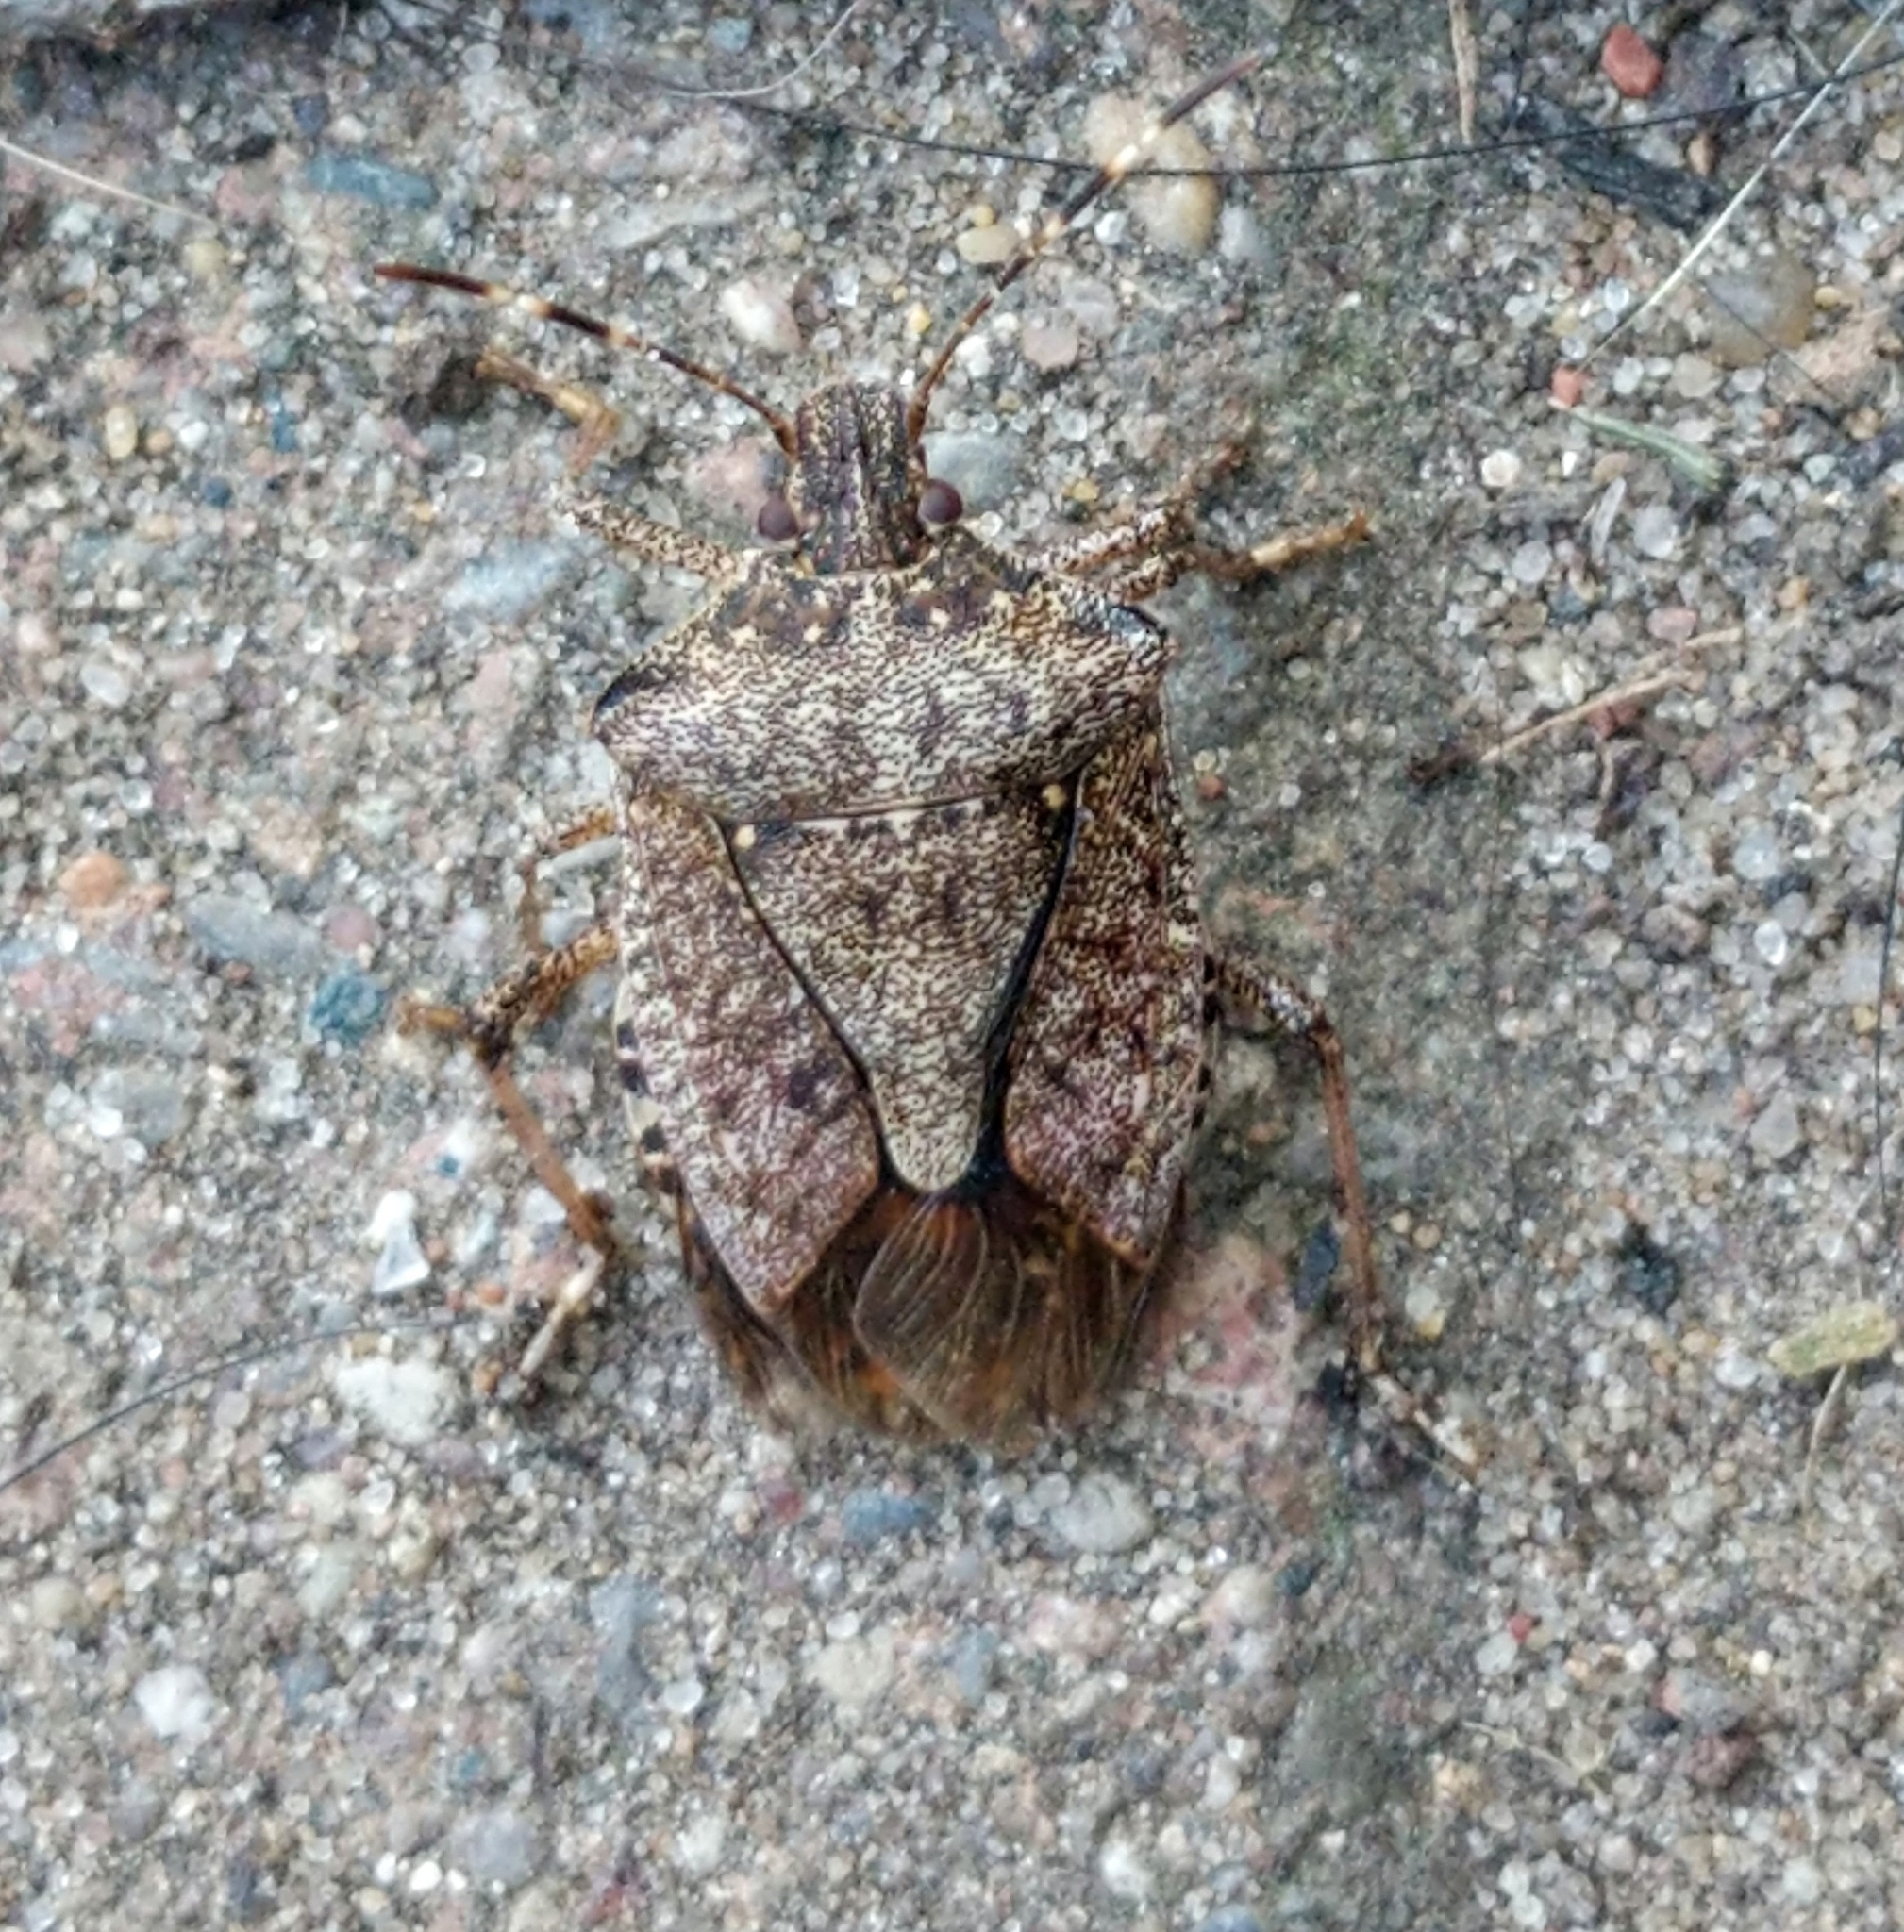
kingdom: Animalia
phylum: Arthropoda
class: Insecta
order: Hemiptera
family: Pentatomidae
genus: Halyomorpha
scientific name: Halyomorpha halys
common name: Brown marmorated stink bug
